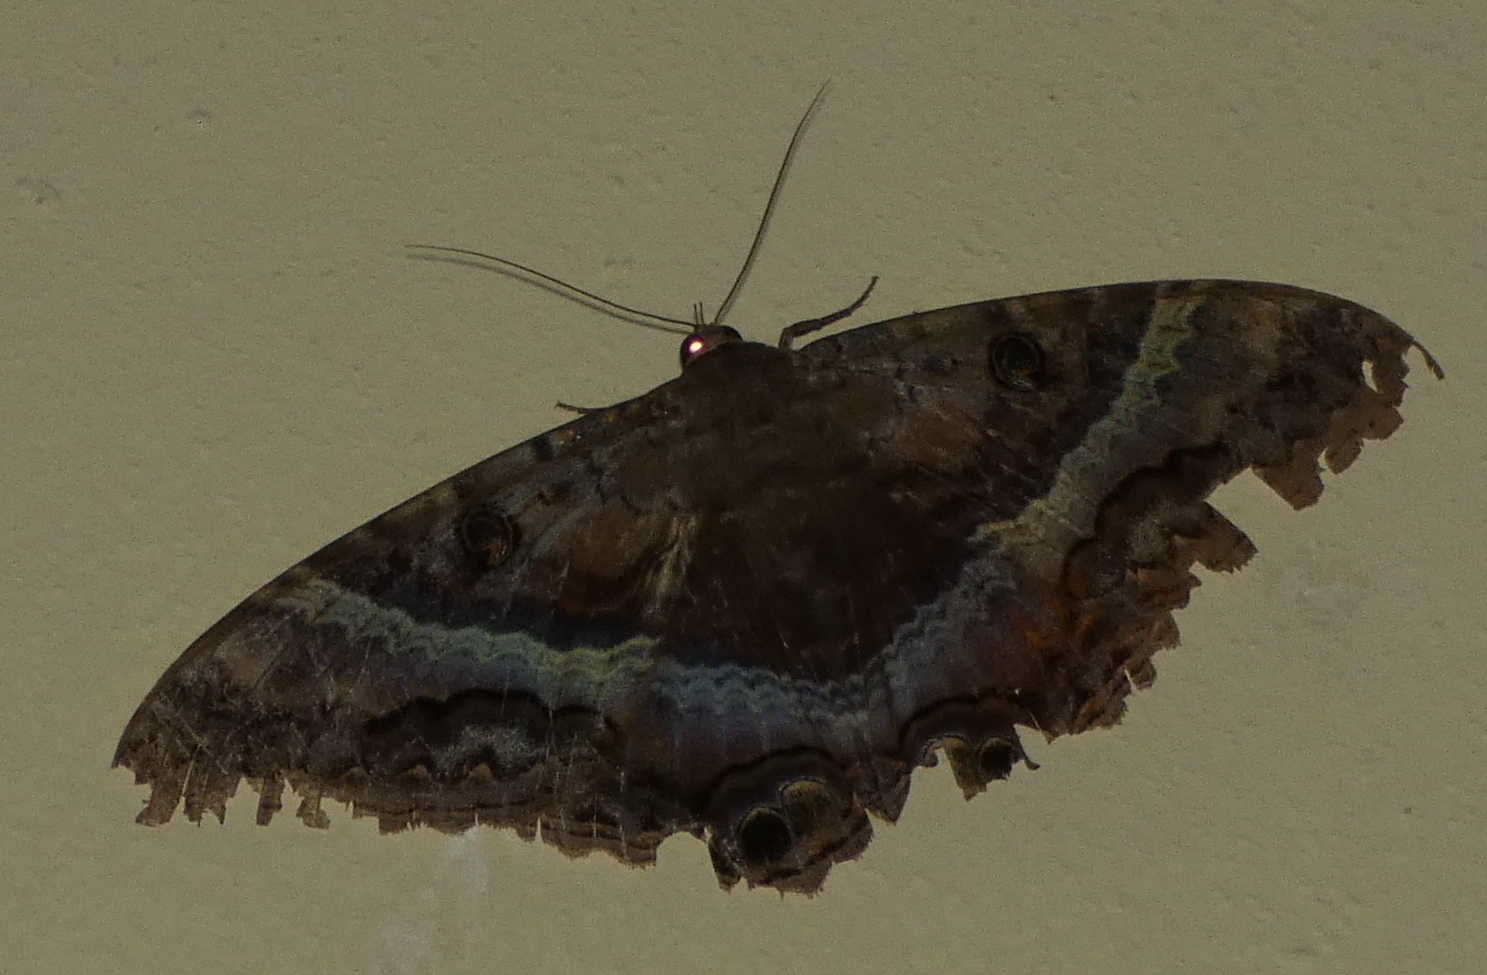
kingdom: Animalia
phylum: Arthropoda
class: Insecta
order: Lepidoptera
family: Erebidae
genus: Ascalapha
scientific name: Ascalapha odorata
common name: Black witch
